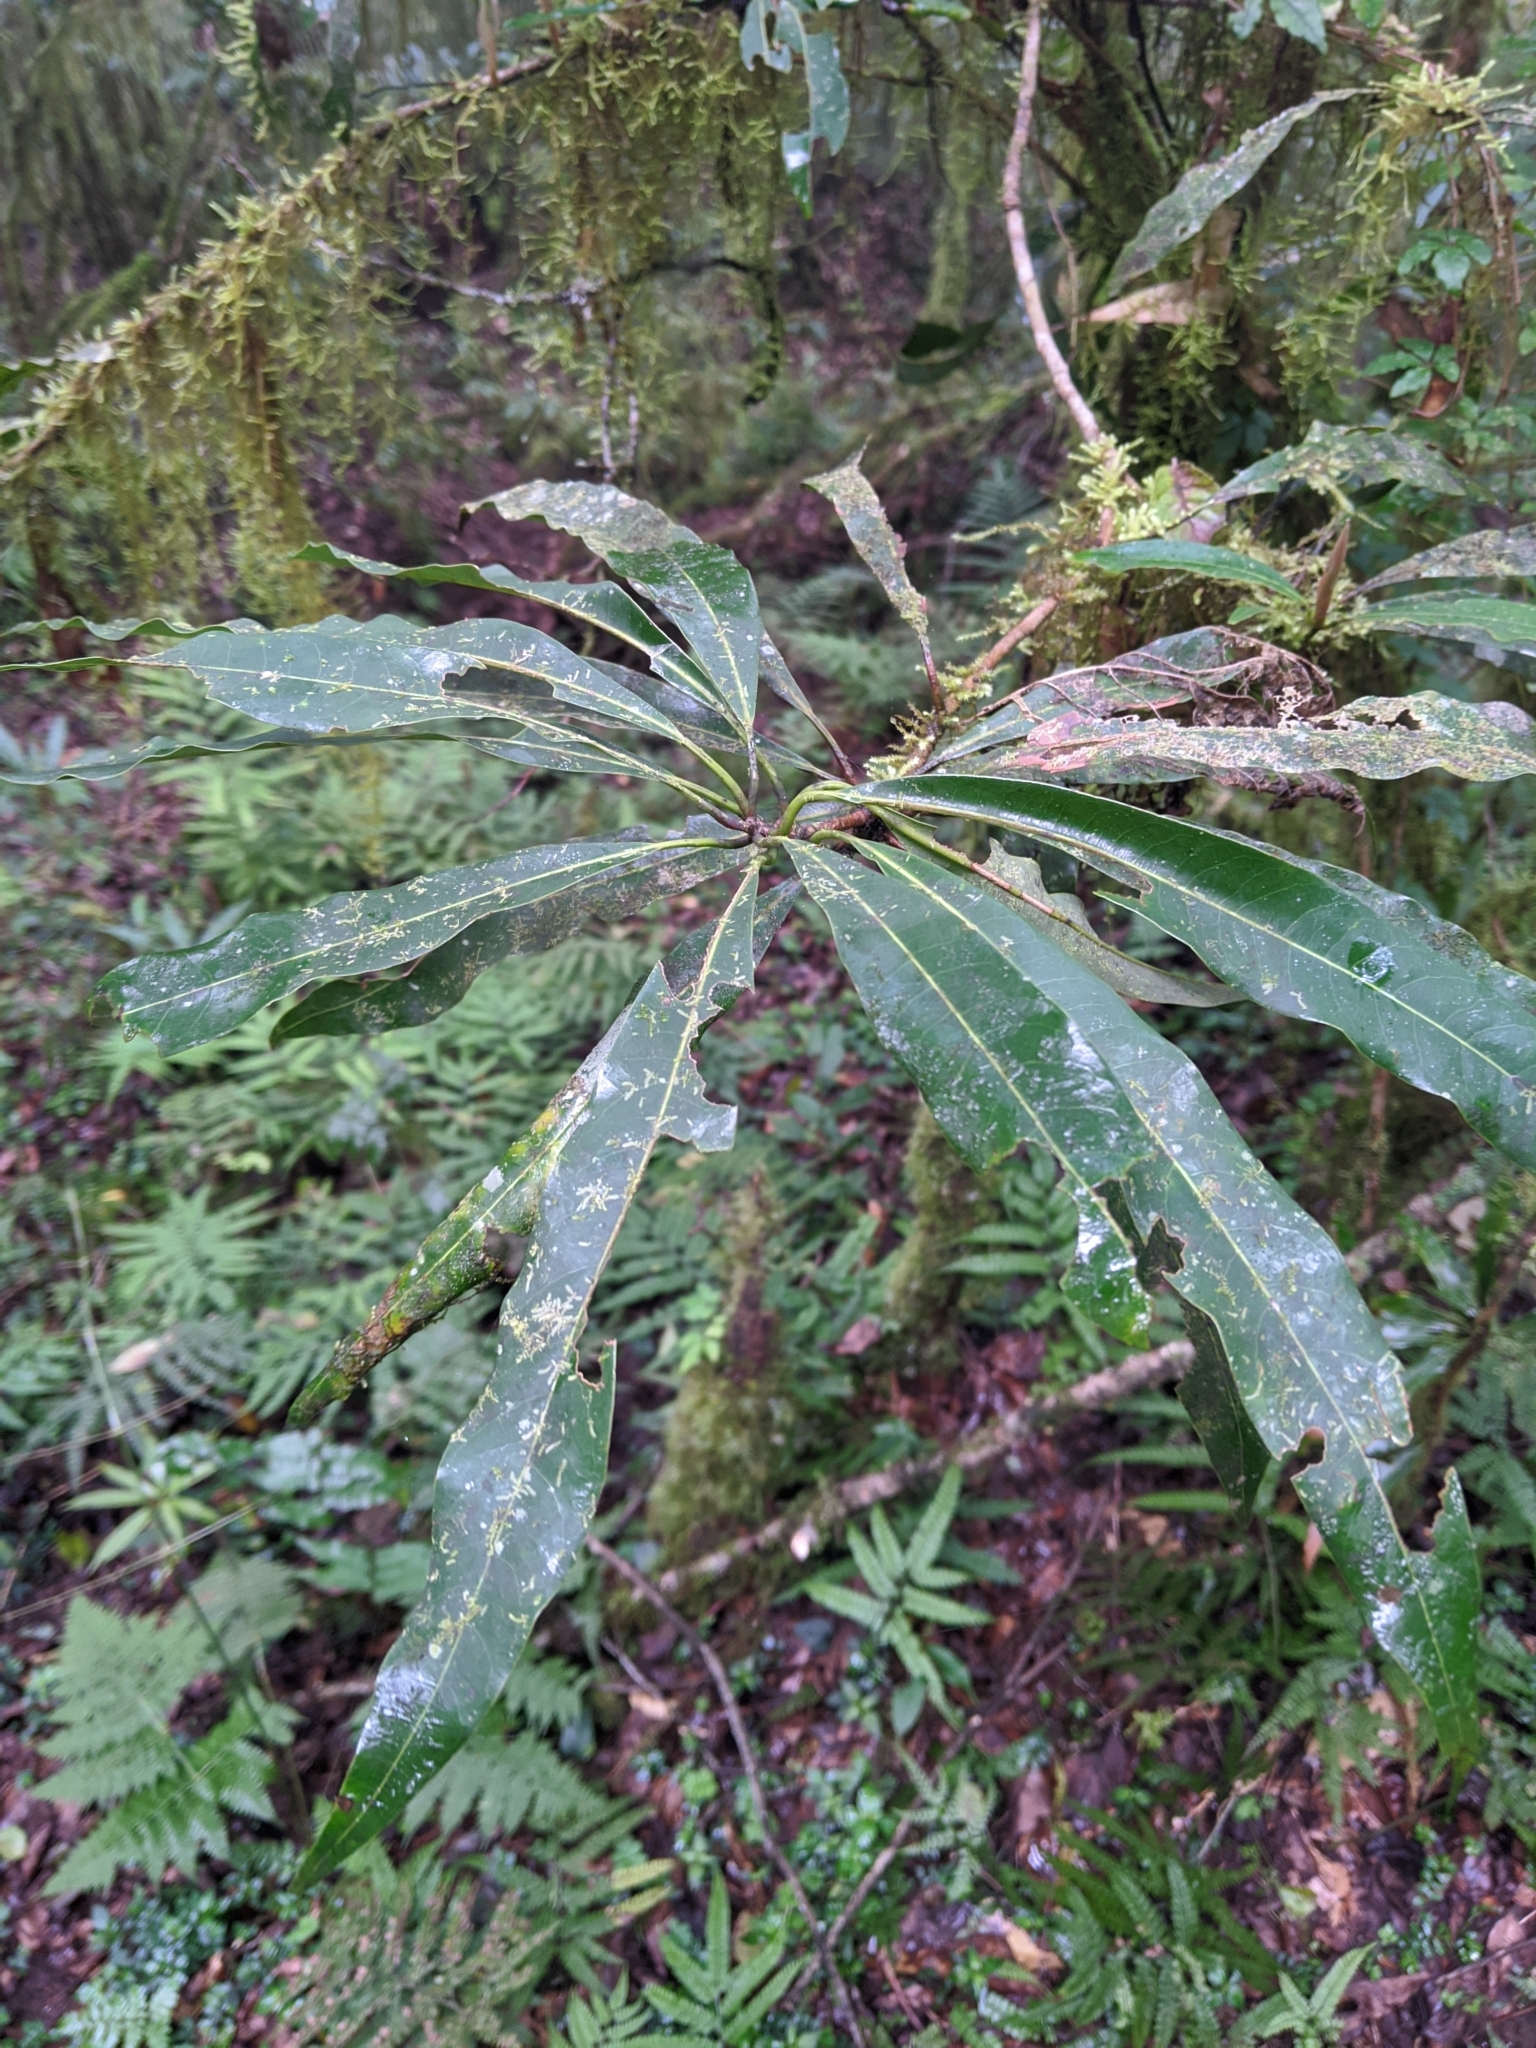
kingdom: Plantae
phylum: Tracheophyta
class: Magnoliopsida
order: Laurales
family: Lauraceae
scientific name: Lauraceae
